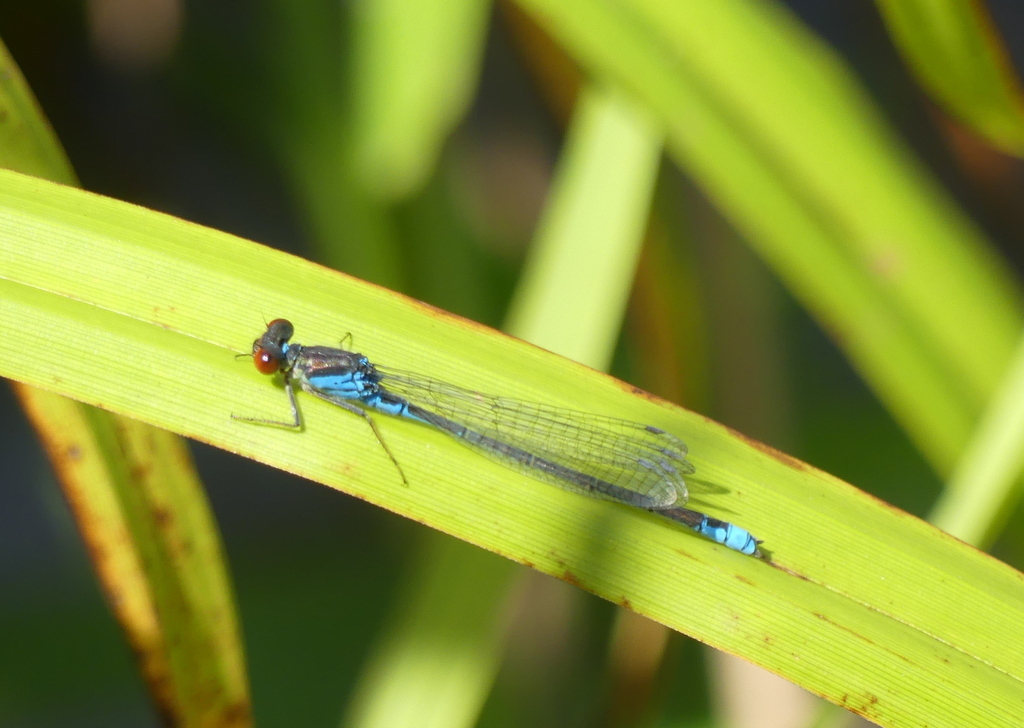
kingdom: Animalia
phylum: Arthropoda
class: Insecta
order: Odonata
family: Coenagrionidae
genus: Erythromma
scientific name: Erythromma viridulum
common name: Small red-eyed damselfly
